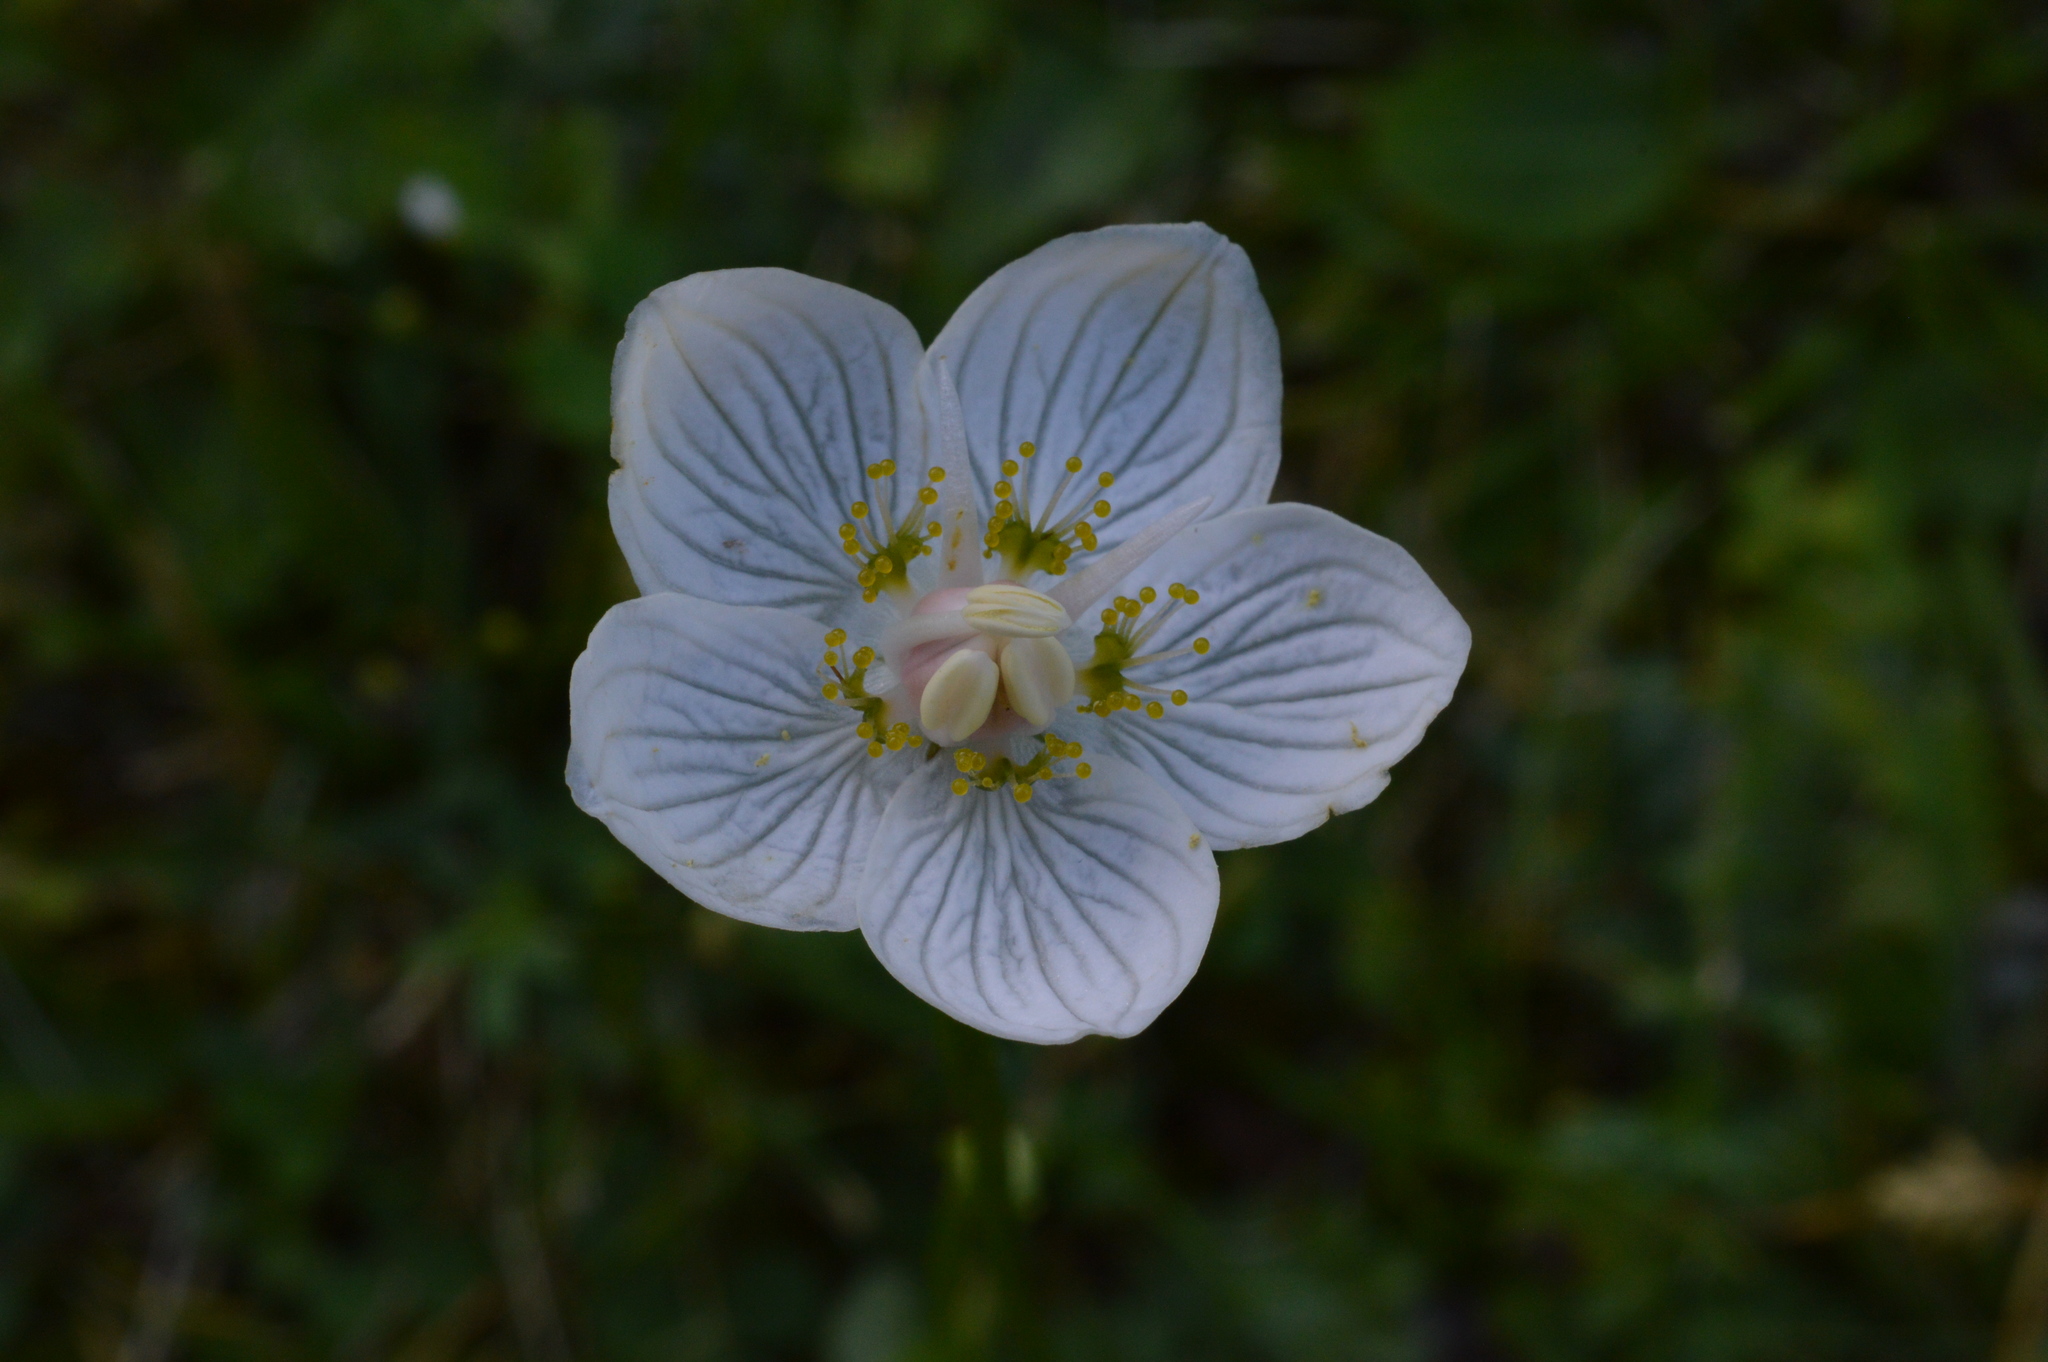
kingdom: Plantae
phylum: Tracheophyta
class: Magnoliopsida
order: Celastrales
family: Parnassiaceae
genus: Parnassia
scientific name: Parnassia palustris
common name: Grass-of-parnassus
